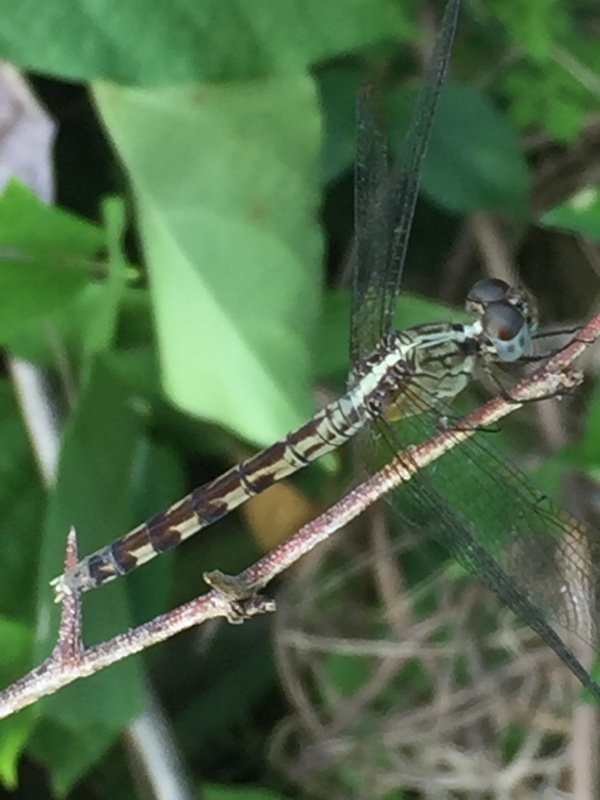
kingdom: Animalia
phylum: Arthropoda
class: Insecta
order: Odonata
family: Libellulidae
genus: Erythrodiplax
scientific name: Erythrodiplax umbrata
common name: Band-winged dragonlet
